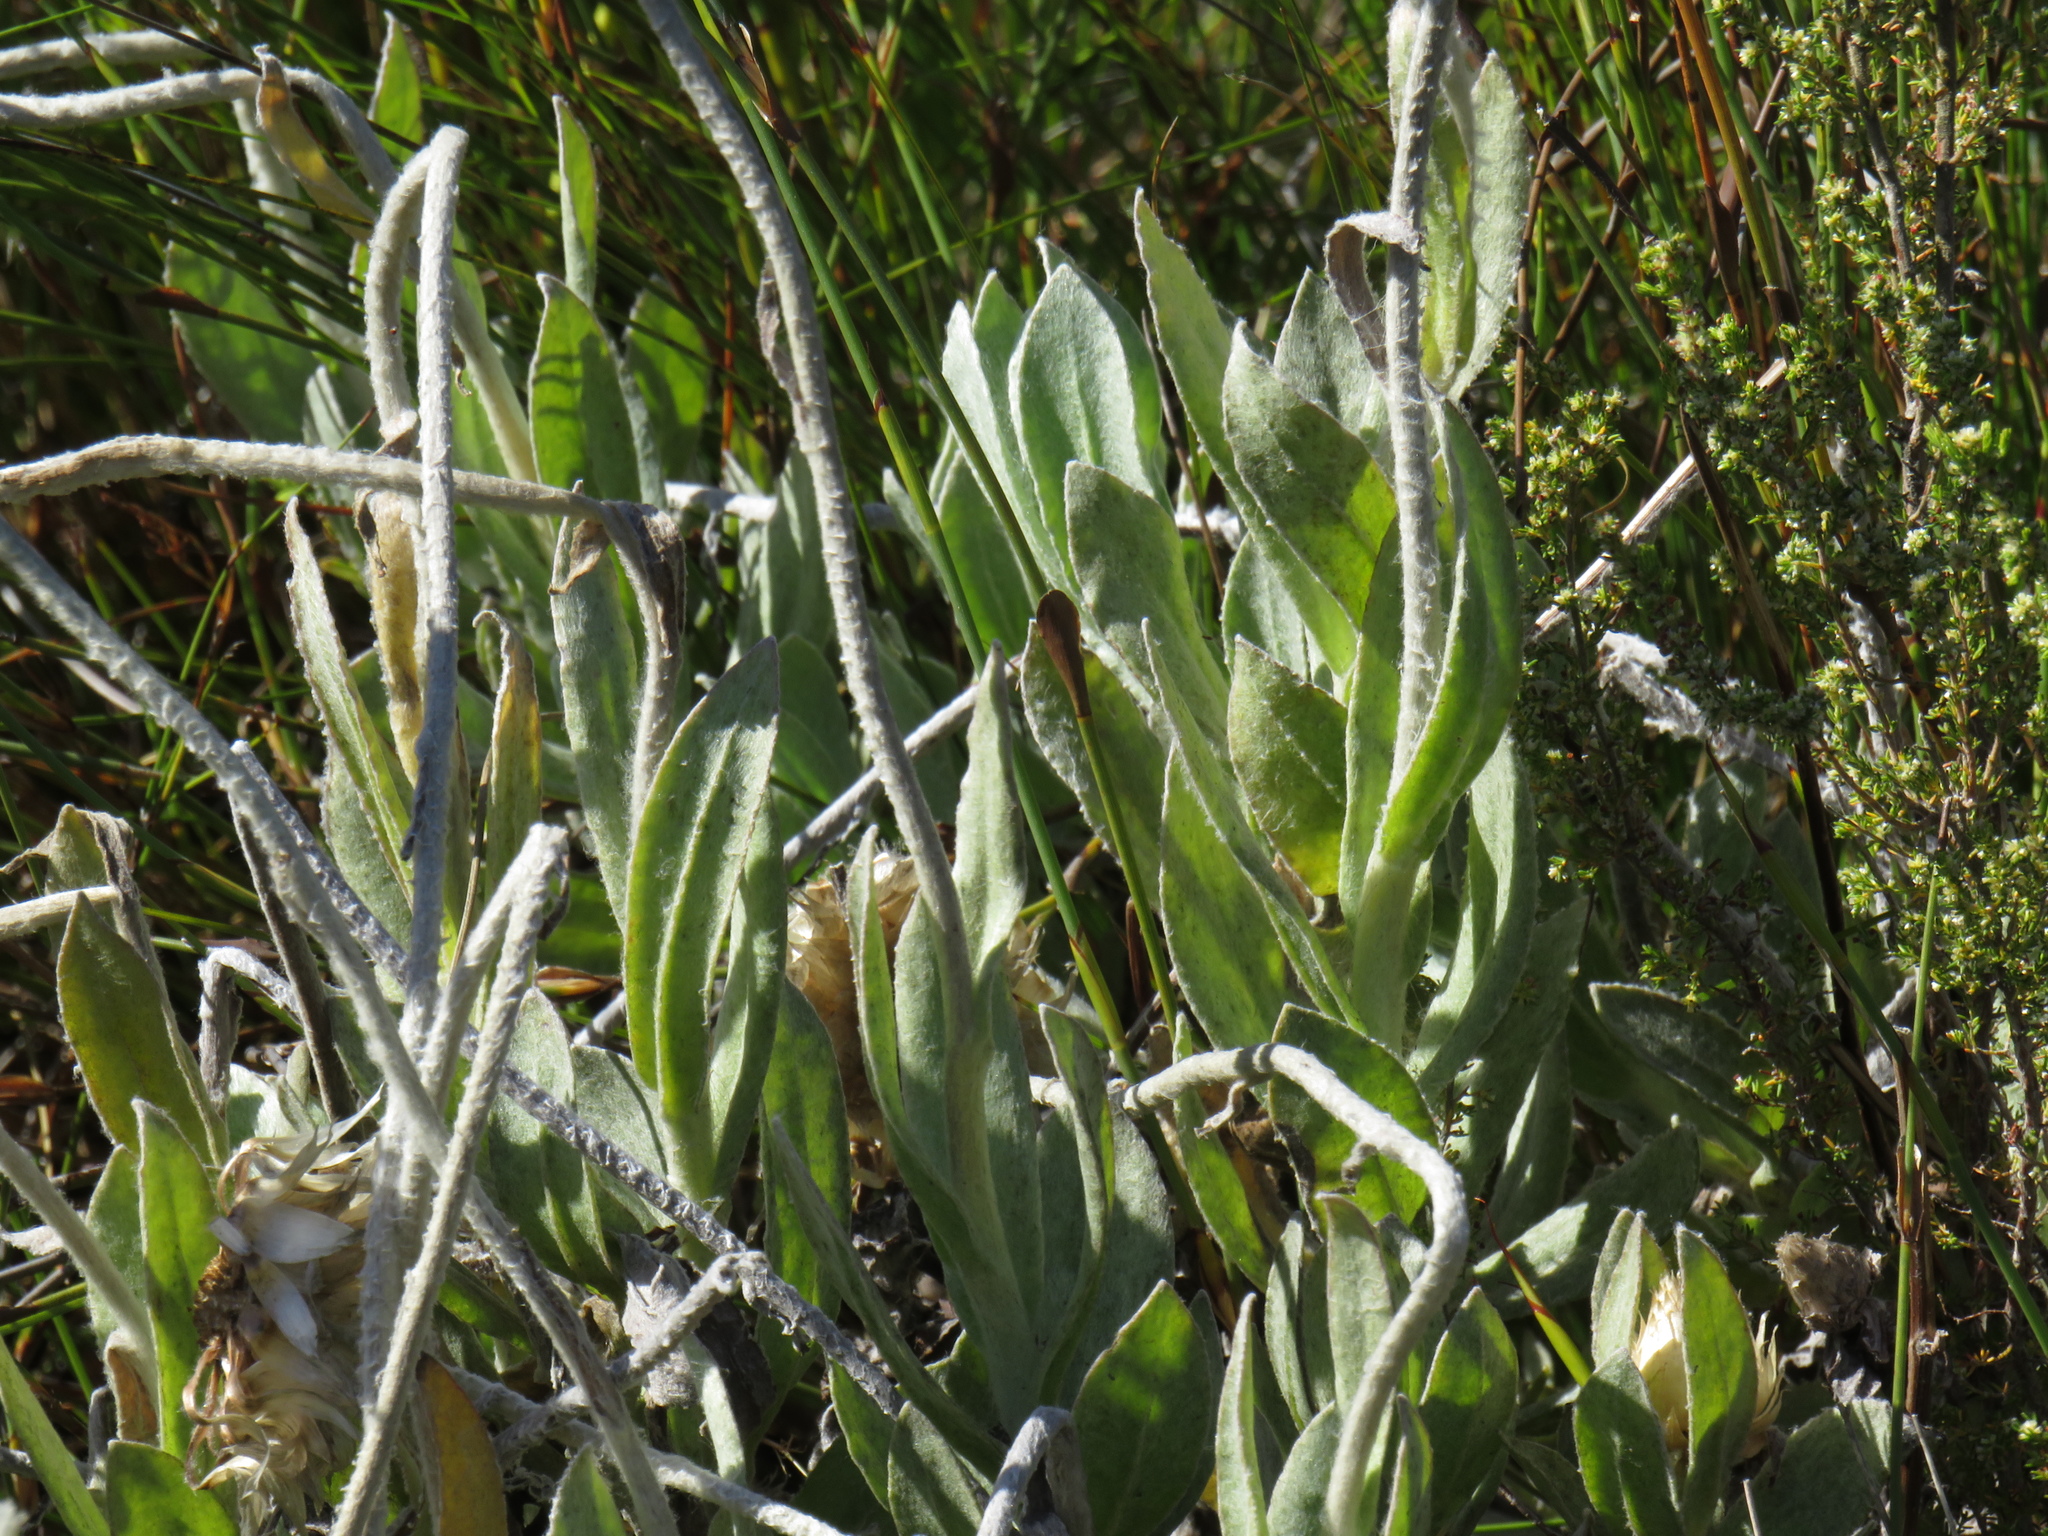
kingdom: Plantae
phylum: Tracheophyta
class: Magnoliopsida
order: Asterales
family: Asteraceae
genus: Syncarpha
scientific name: Syncarpha speciosissima
